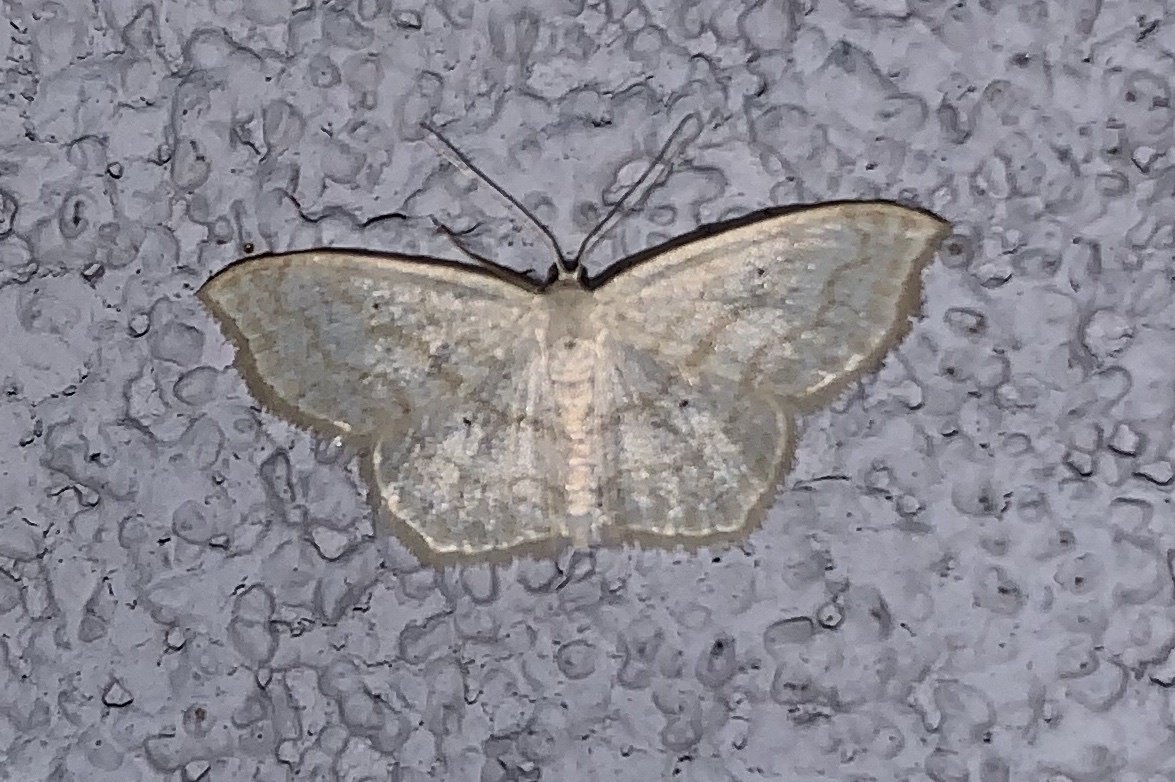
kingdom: Animalia
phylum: Arthropoda
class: Insecta
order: Lepidoptera
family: Geometridae
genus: Scopula
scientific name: Scopula limboundata
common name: Large lace border
